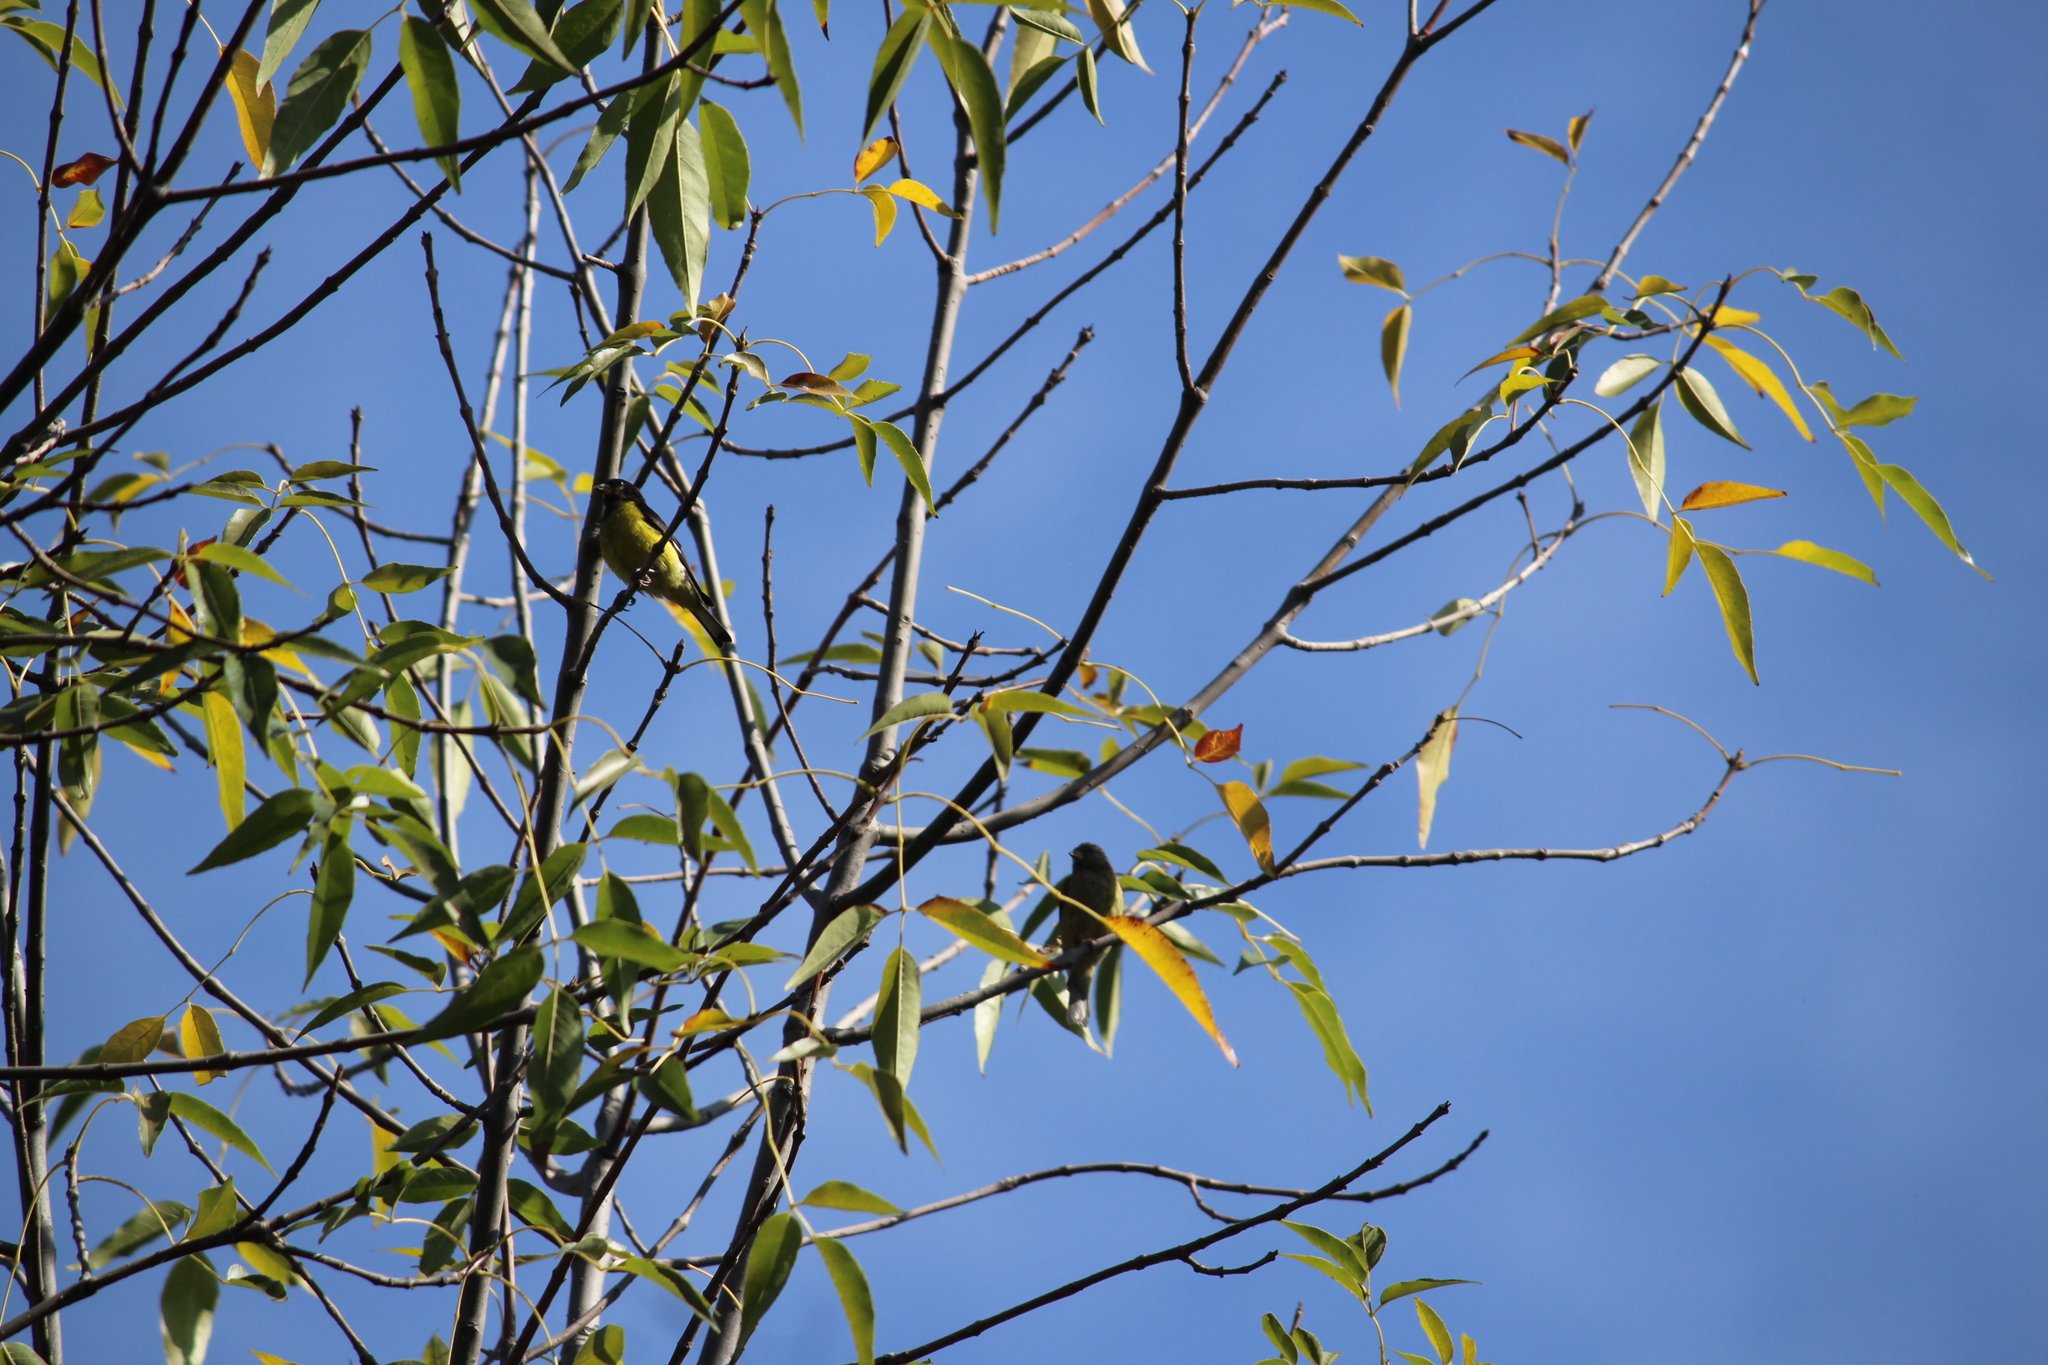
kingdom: Animalia
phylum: Chordata
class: Aves
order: Passeriformes
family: Fringillidae
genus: Spinus
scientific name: Spinus psaltria
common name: Lesser goldfinch
